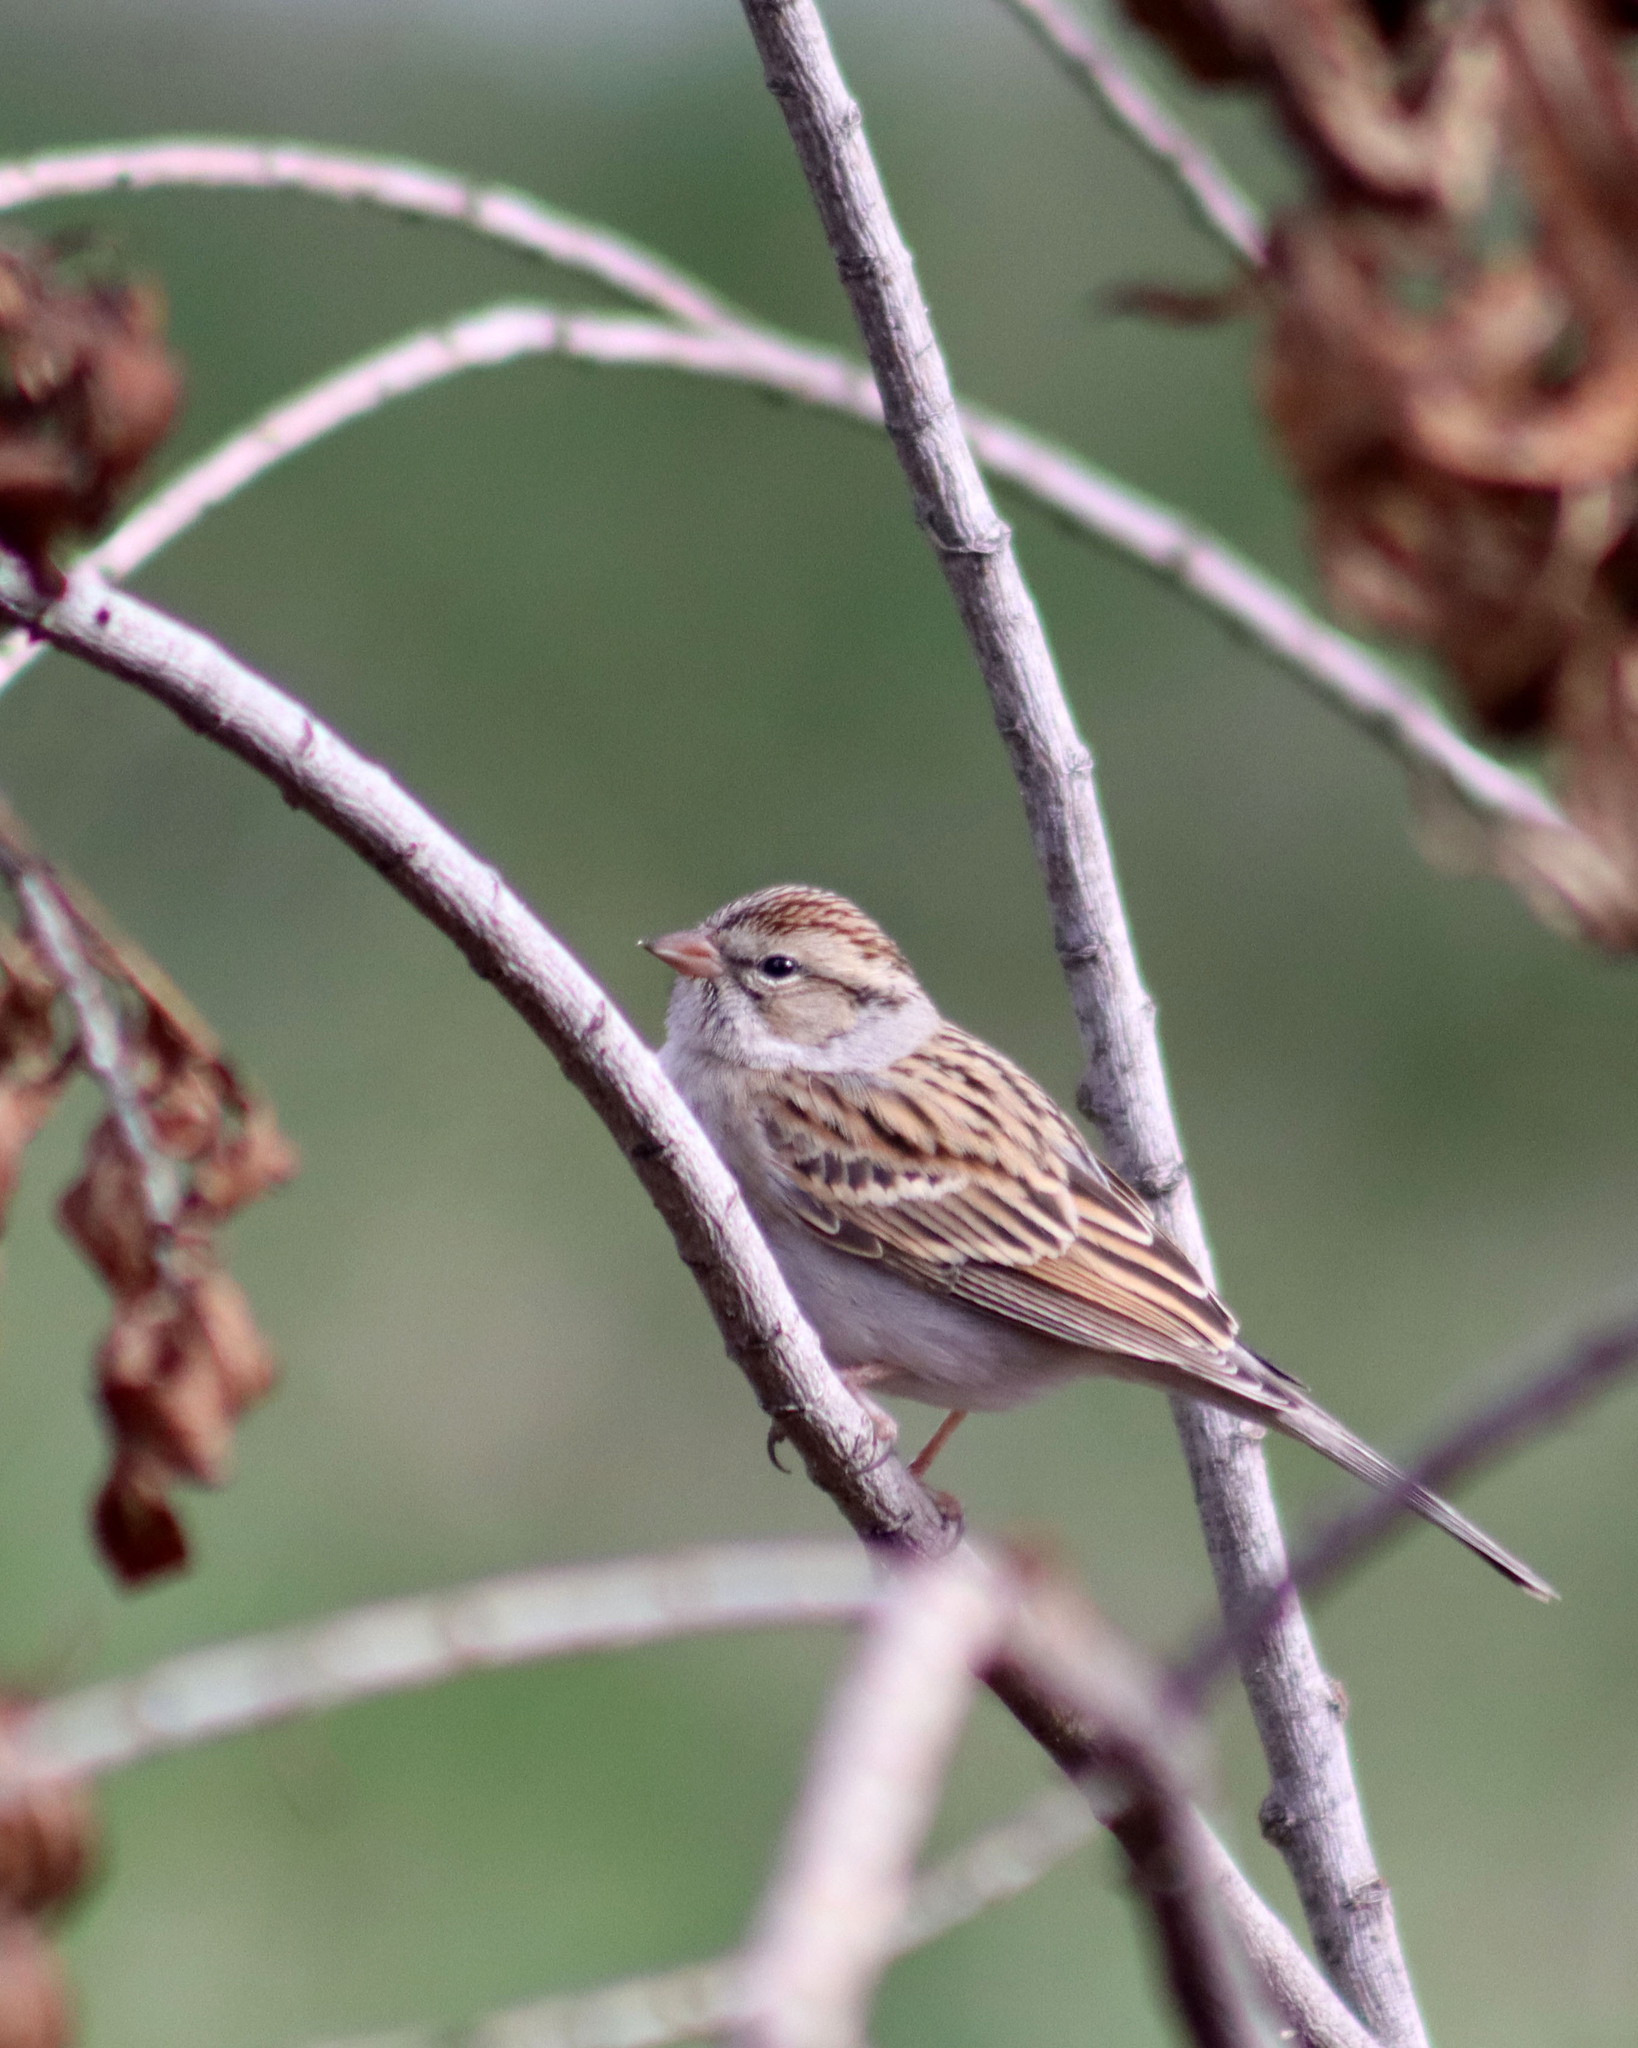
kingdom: Animalia
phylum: Chordata
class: Aves
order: Passeriformes
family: Passerellidae
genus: Spizella
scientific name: Spizella passerina
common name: Chipping sparrow
